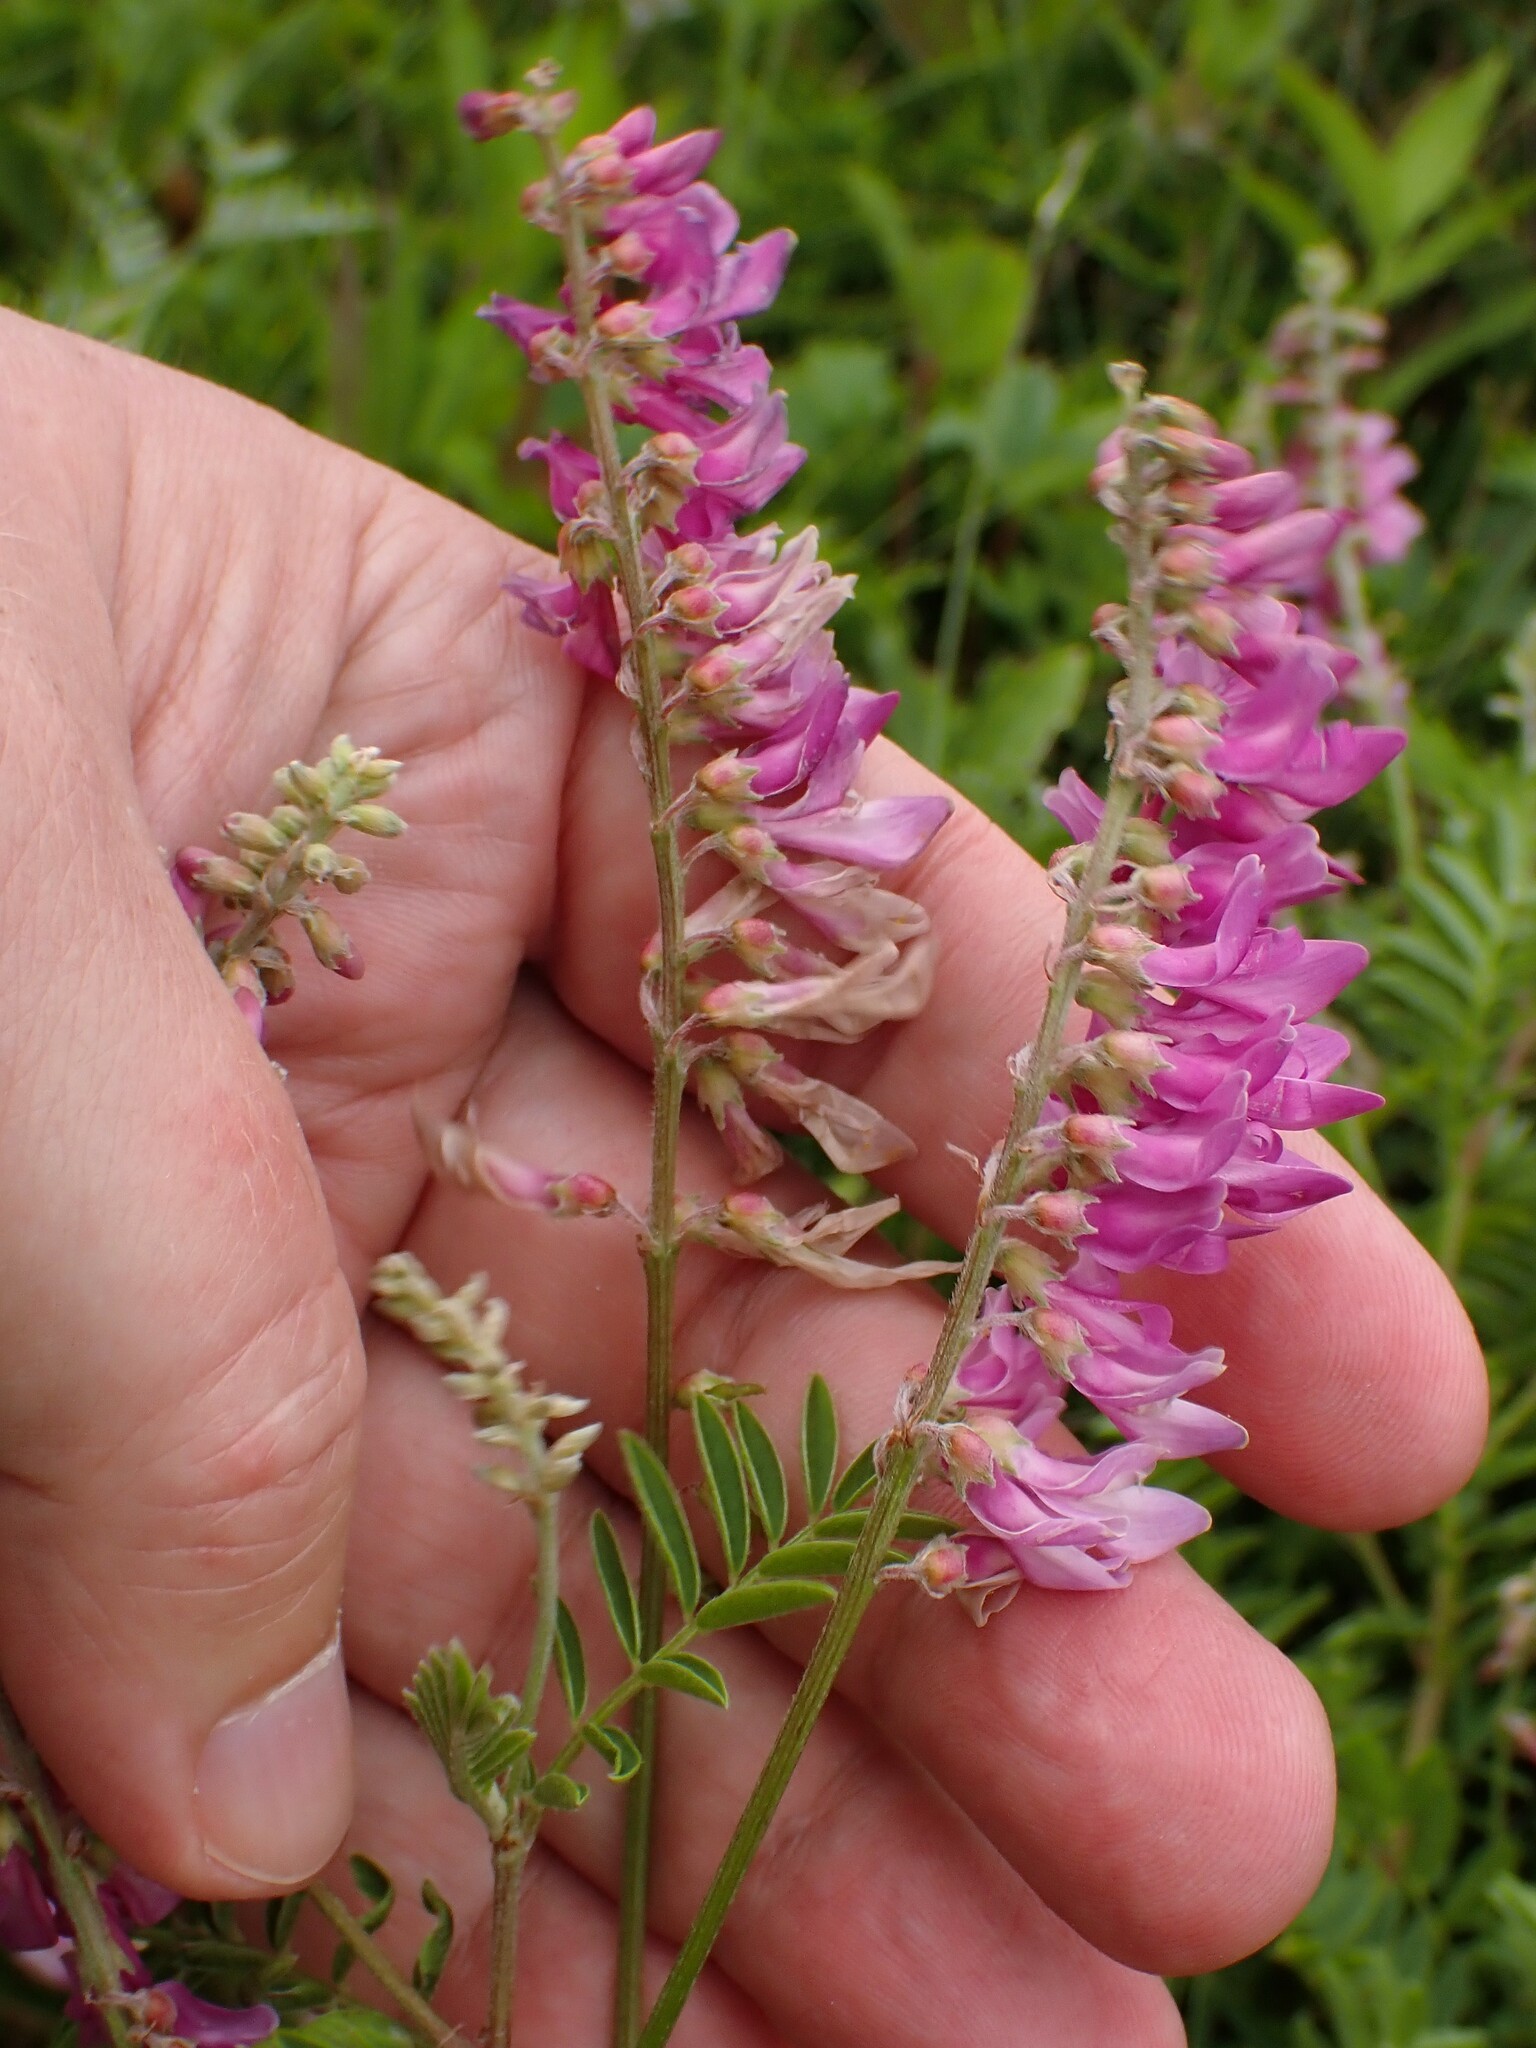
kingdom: Plantae
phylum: Tracheophyta
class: Magnoliopsida
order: Fabales
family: Fabaceae
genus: Hedysarum
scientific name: Hedysarum alpinum
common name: Alpine sweet-vetch
